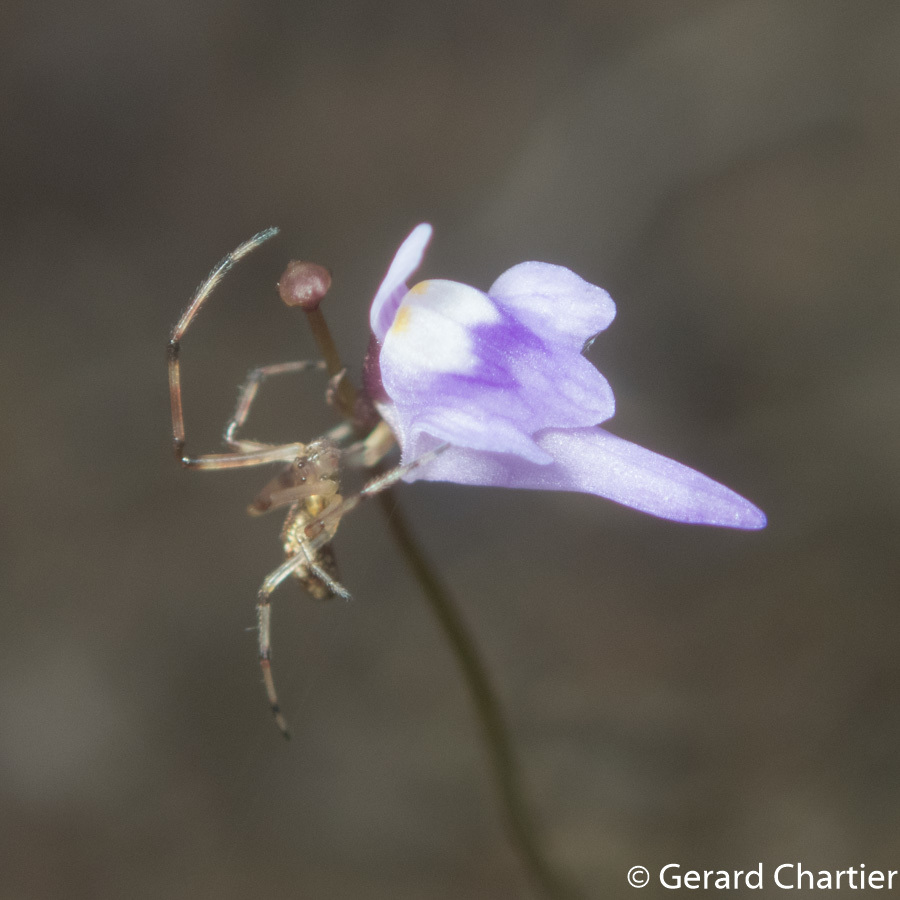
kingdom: Plantae
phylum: Tracheophyta
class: Magnoliopsida
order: Lamiales
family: Lentibulariaceae
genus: Utricularia
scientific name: Utricularia geoffrayi
